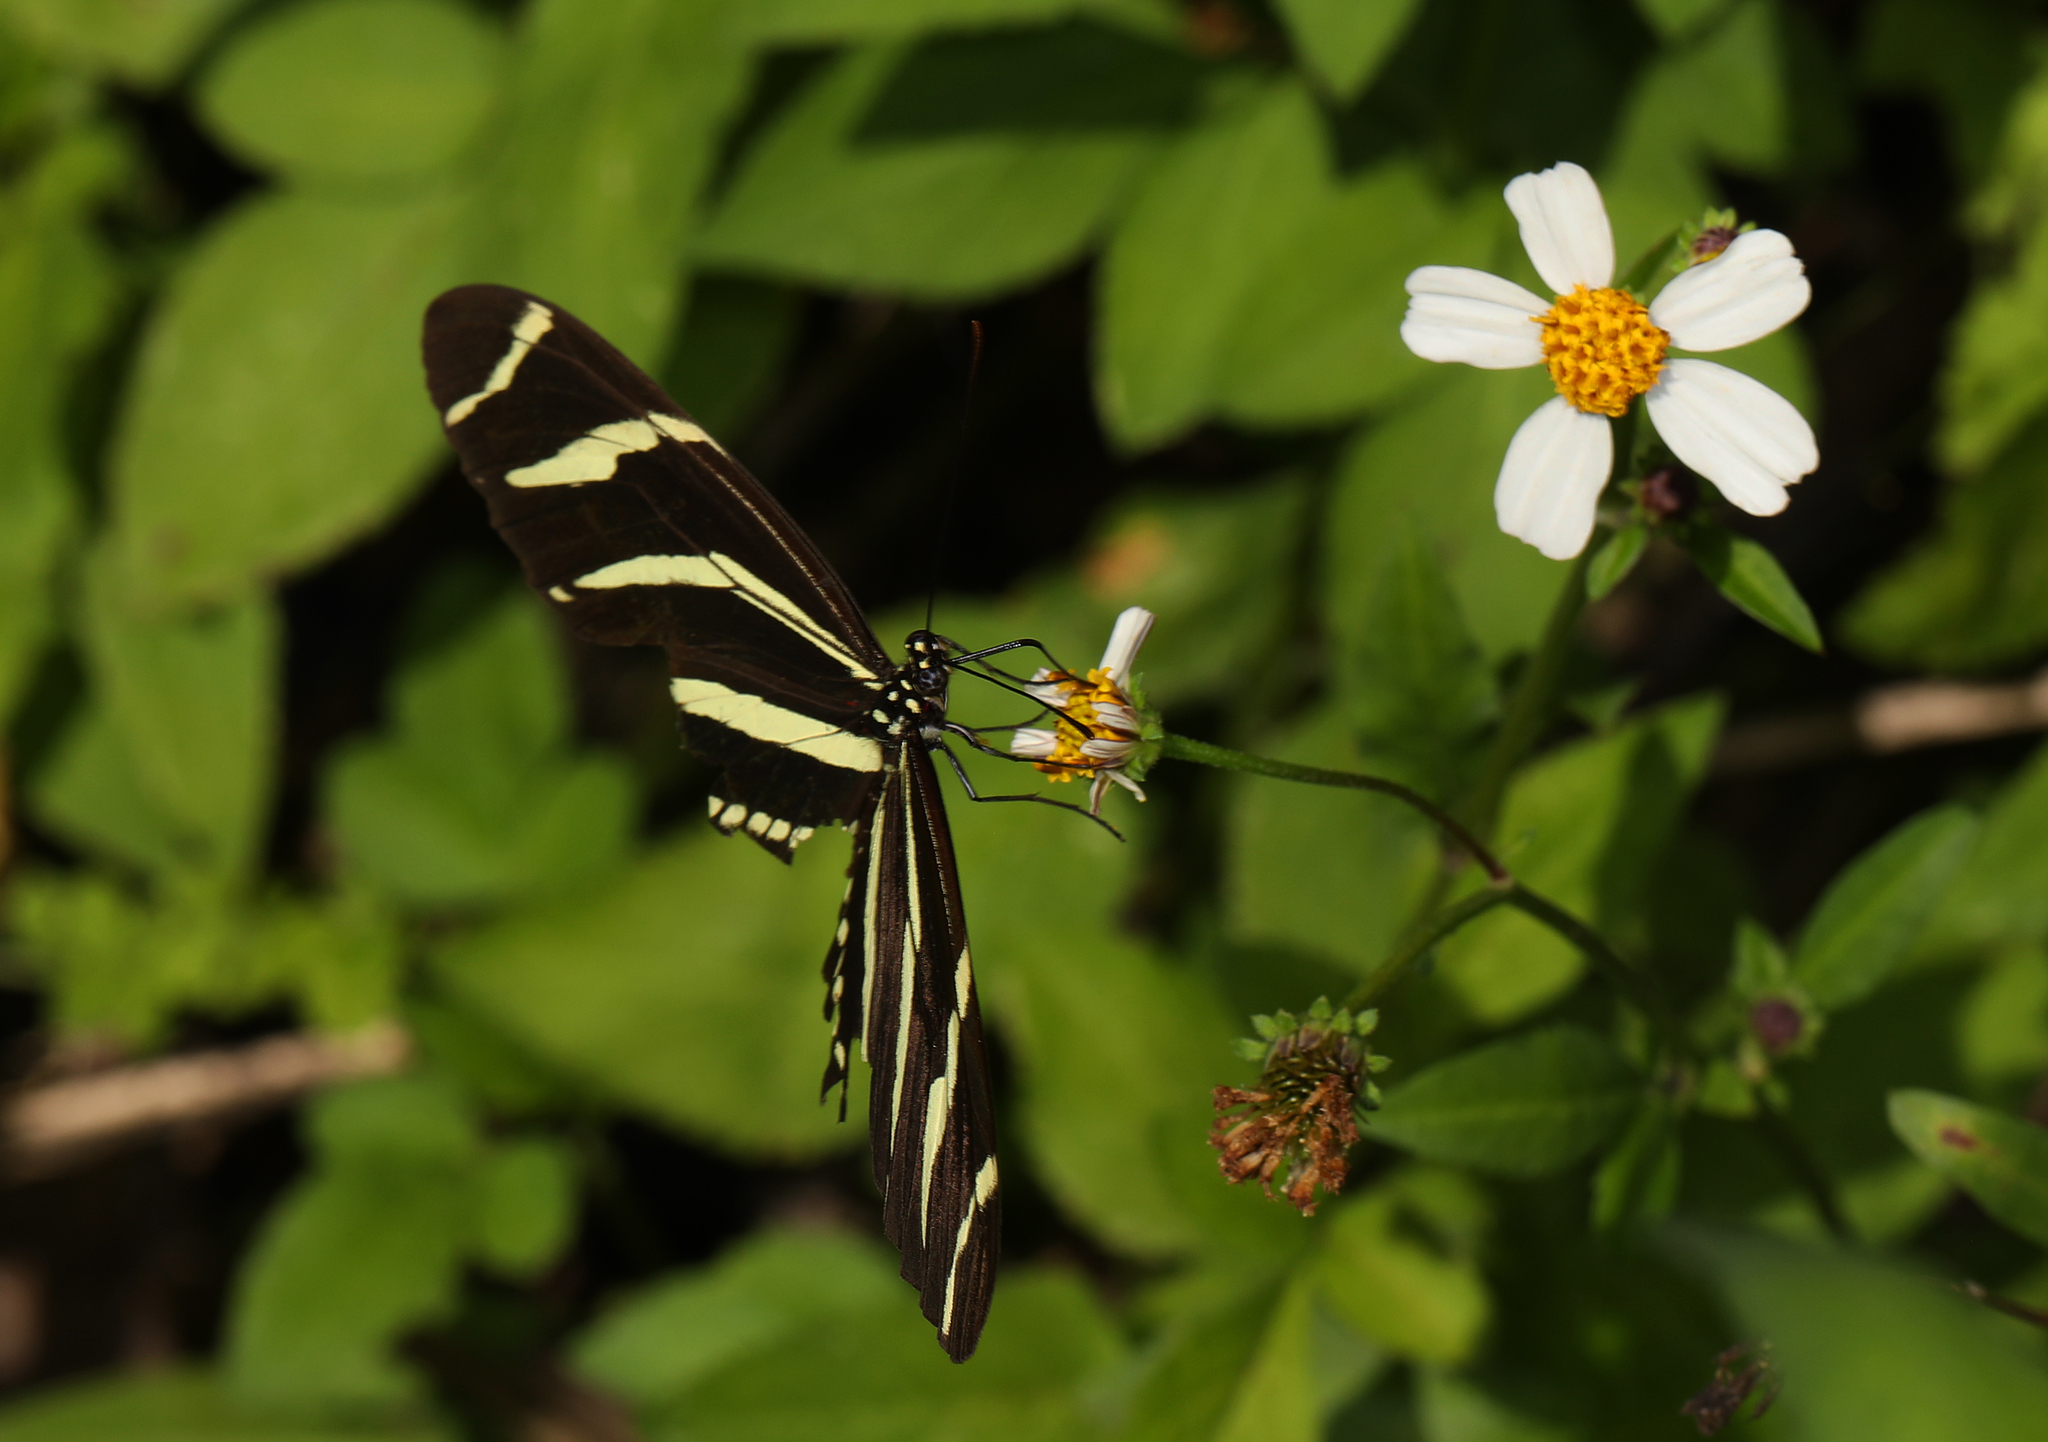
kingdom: Animalia
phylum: Arthropoda
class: Insecta
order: Lepidoptera
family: Nymphalidae
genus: Heliconius
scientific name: Heliconius charithonia
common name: Zebra long wing
